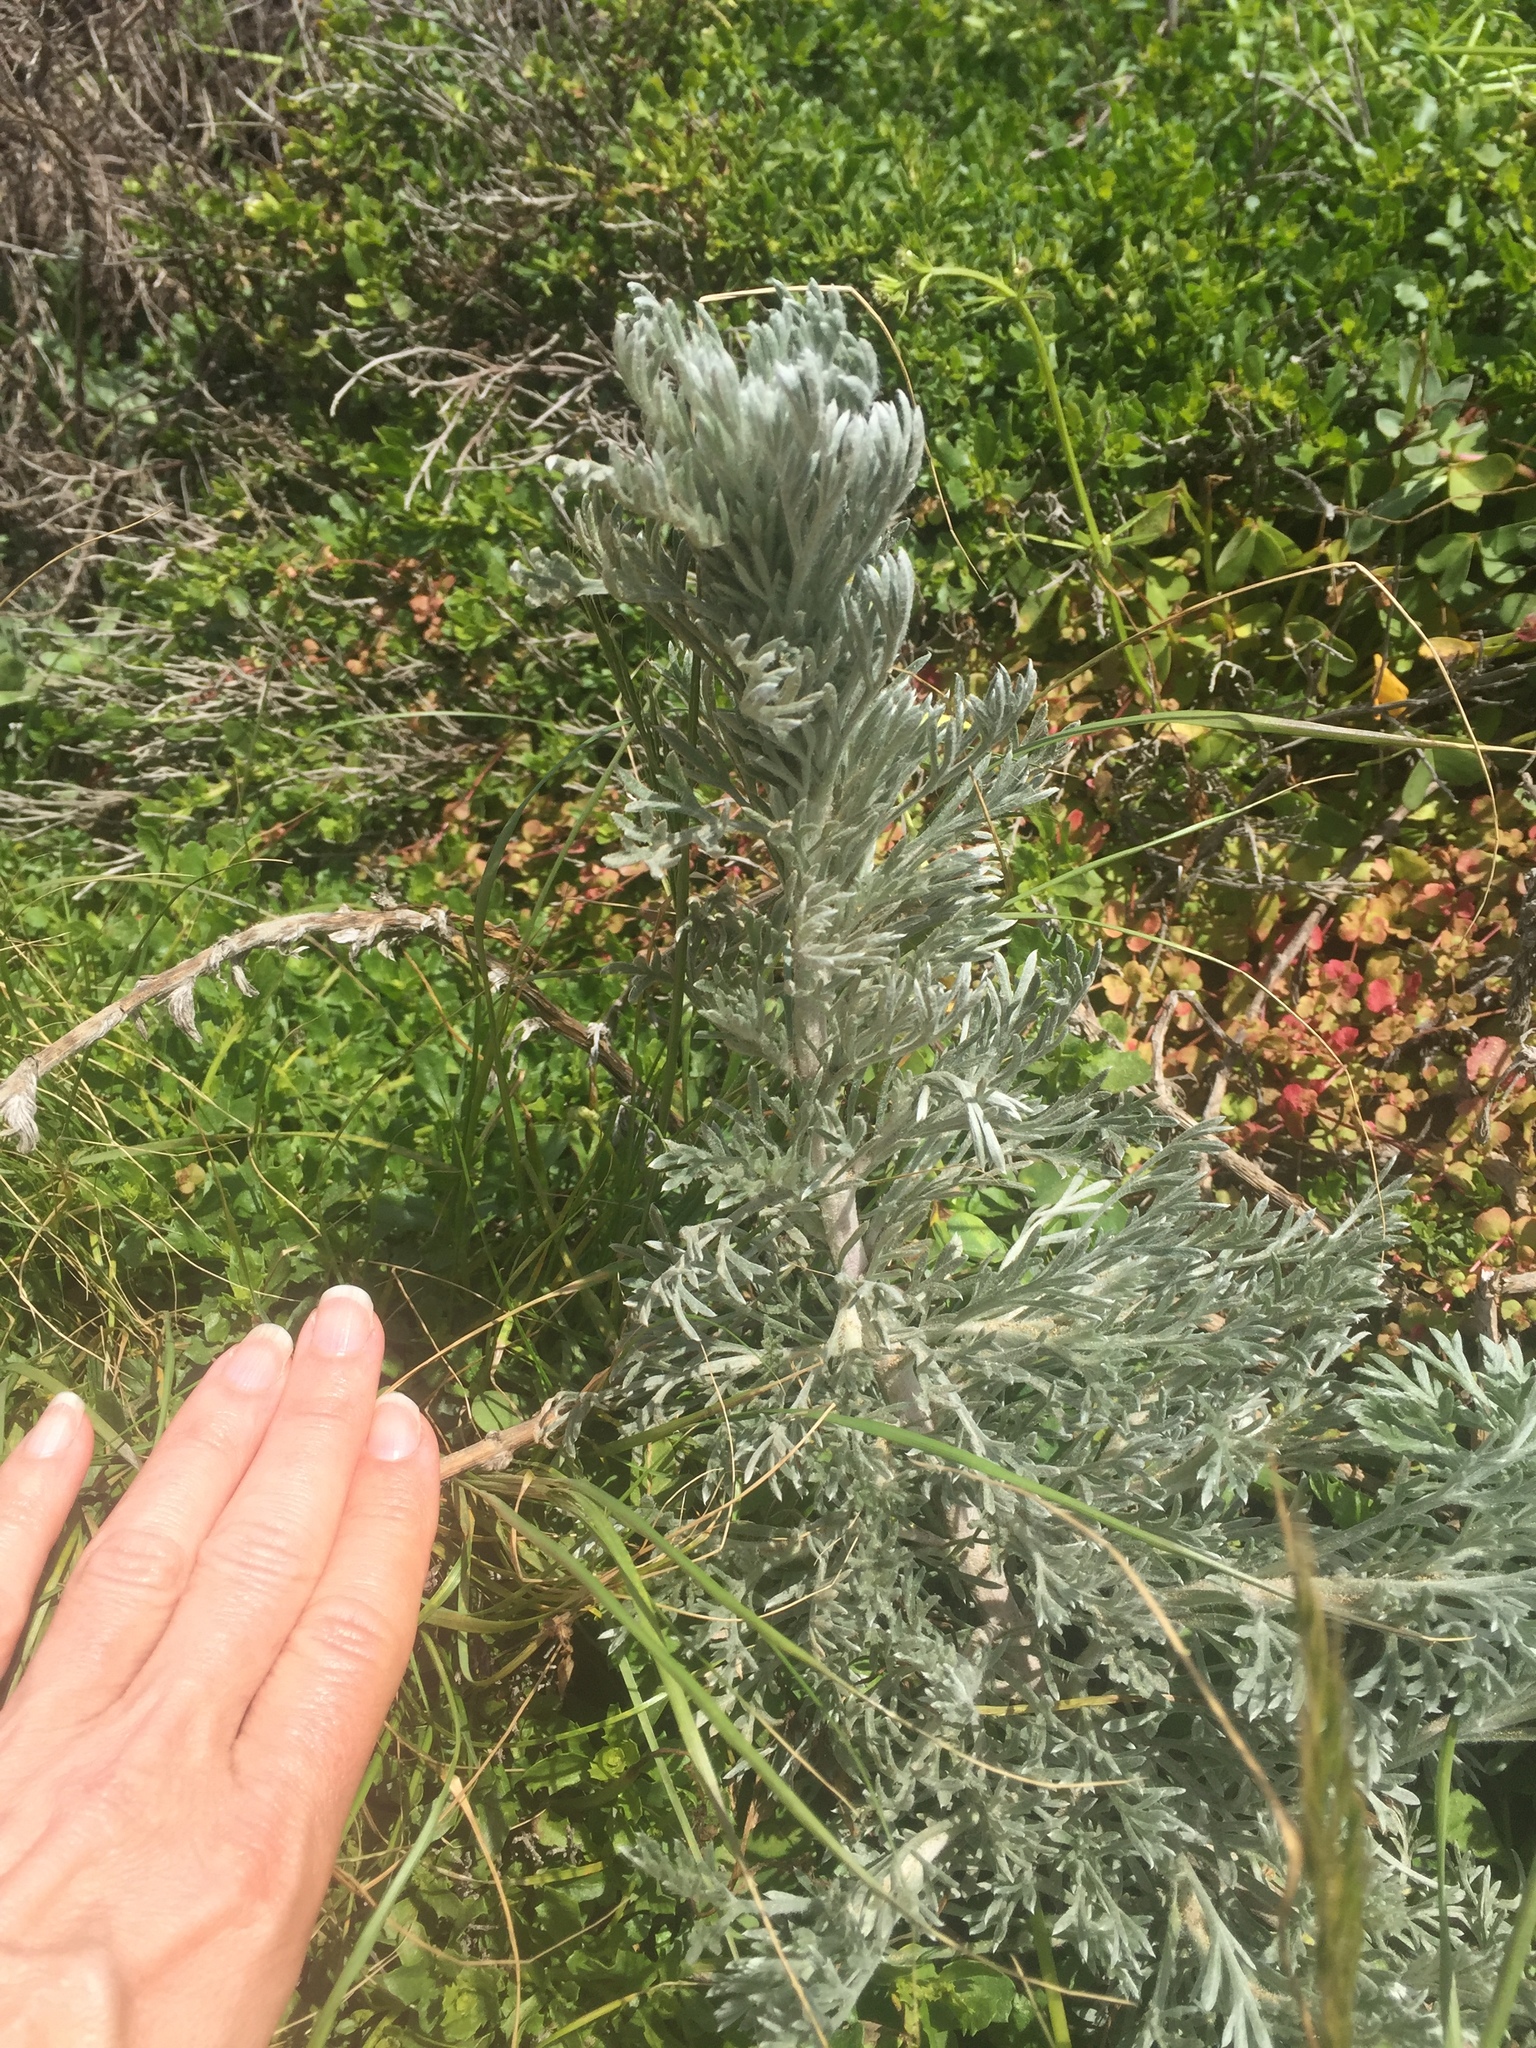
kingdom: Plantae
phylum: Tracheophyta
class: Magnoliopsida
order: Asterales
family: Asteraceae
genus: Artemisia
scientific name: Artemisia pycnocephala
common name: Coastal sagewort
